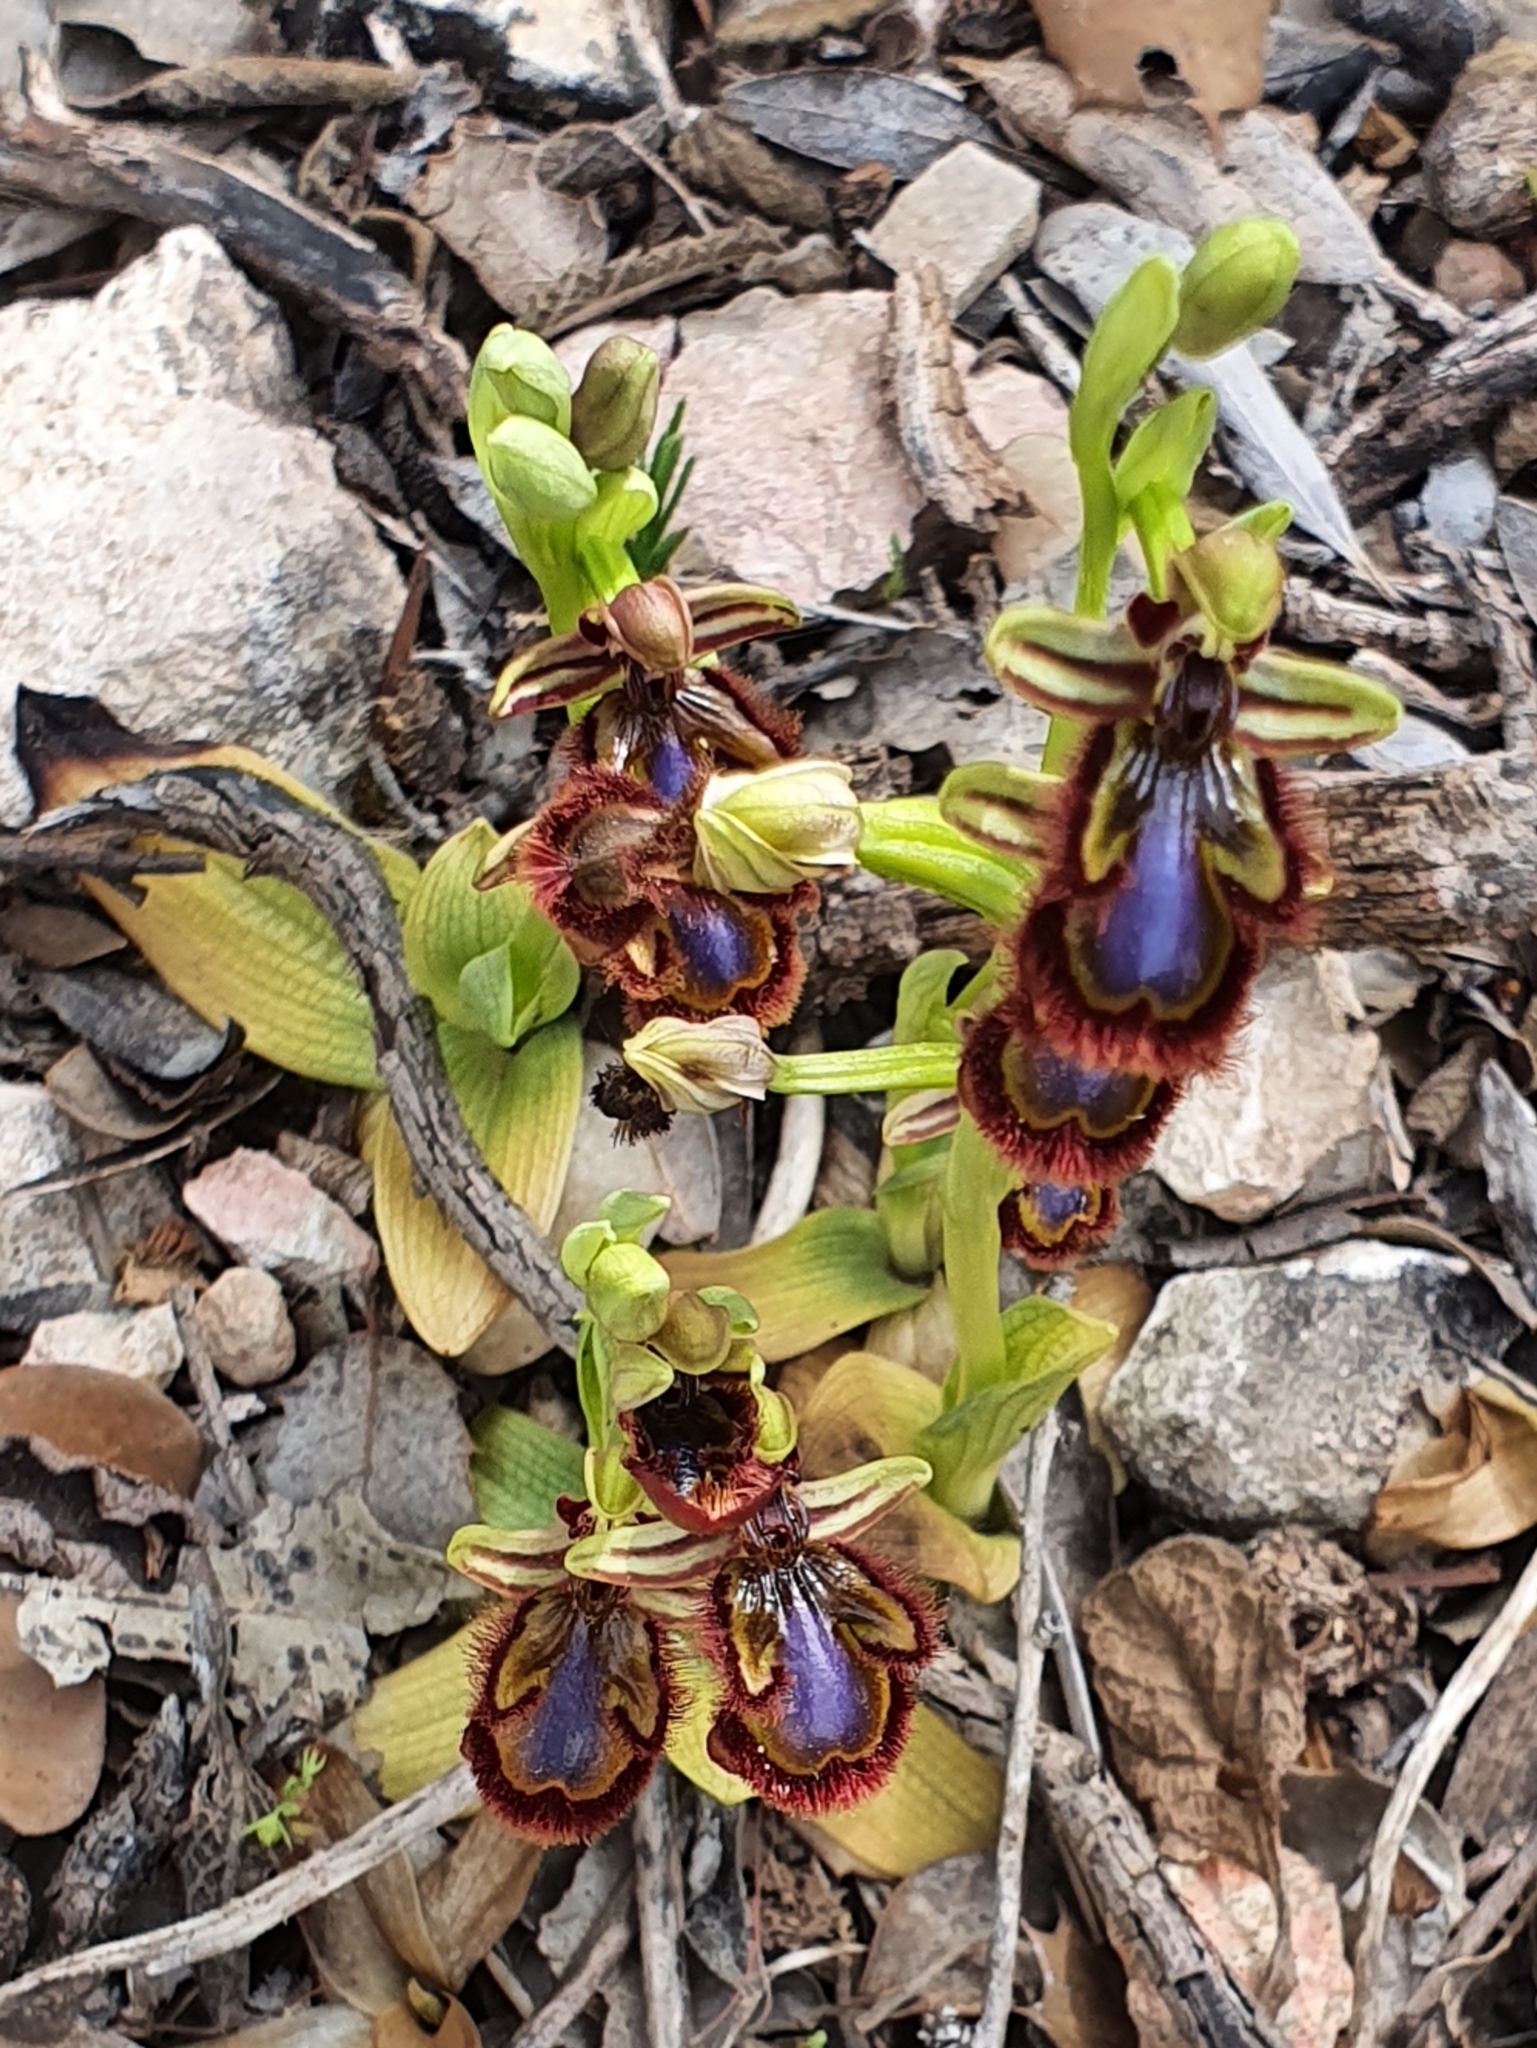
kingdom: Plantae
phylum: Tracheophyta
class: Liliopsida
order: Asparagales
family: Orchidaceae
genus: Ophrys
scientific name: Ophrys speculum
